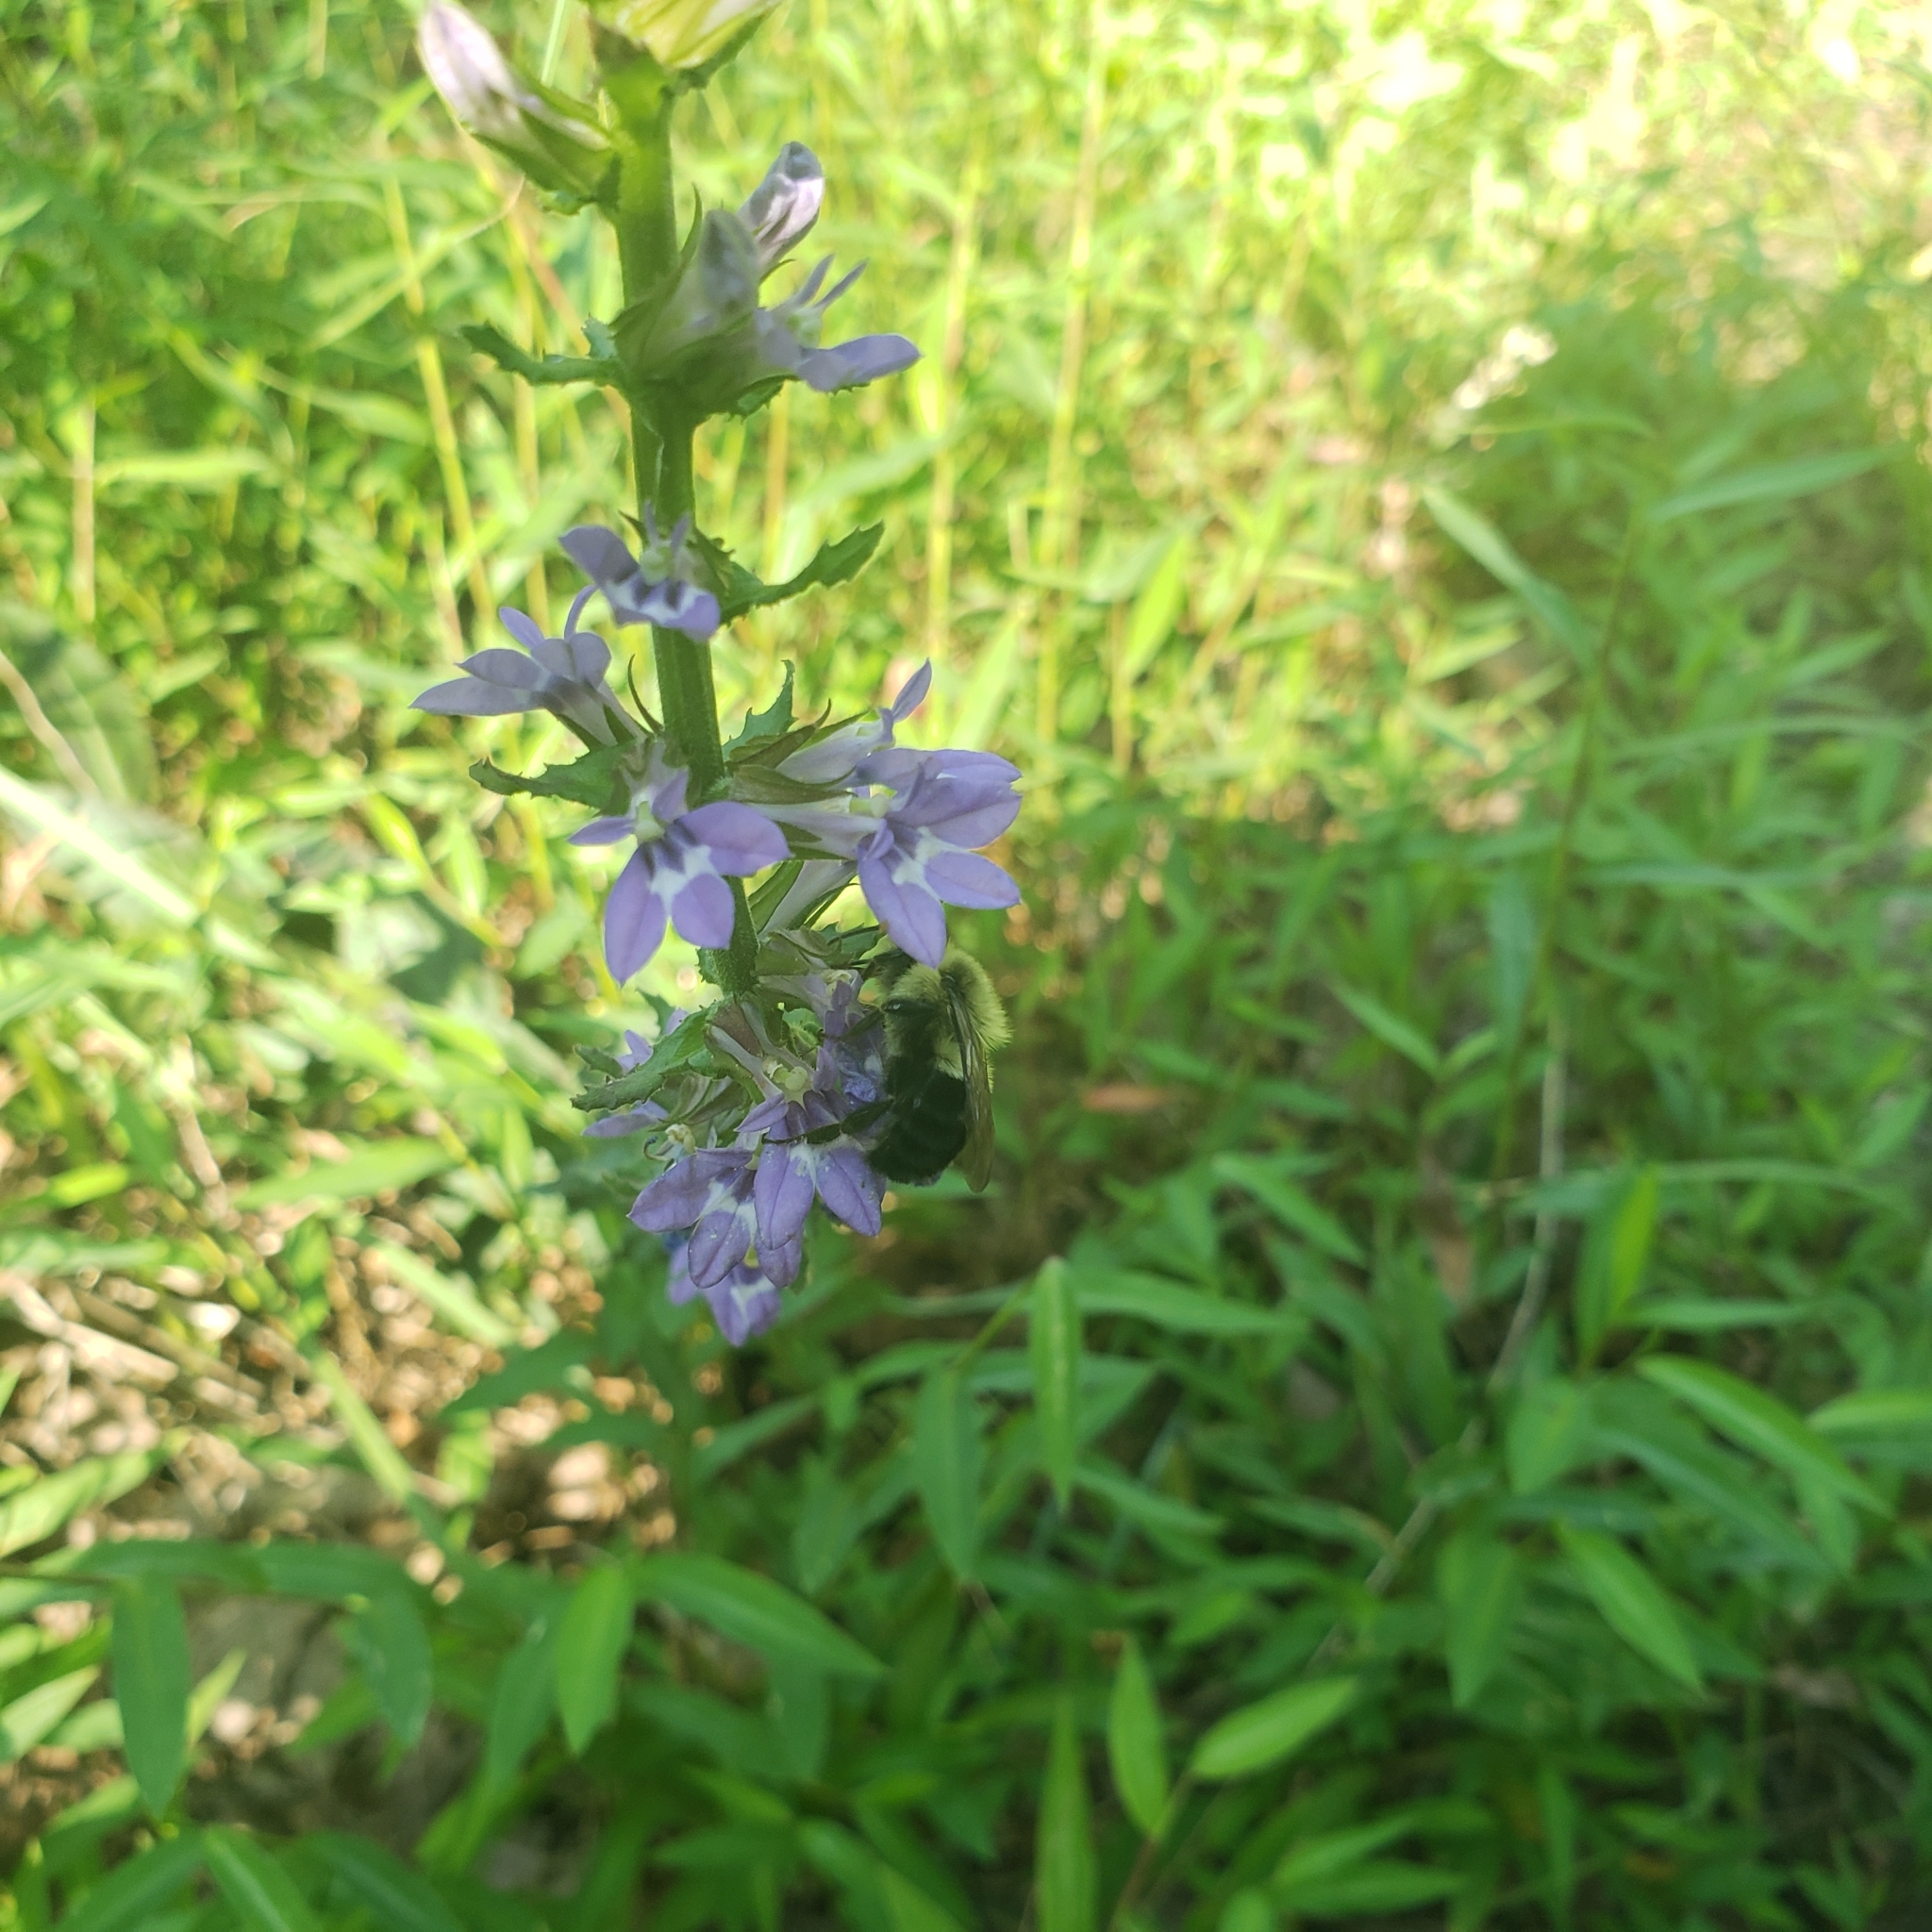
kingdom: Plantae
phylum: Tracheophyta
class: Magnoliopsida
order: Asterales
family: Campanulaceae
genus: Lobelia
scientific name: Lobelia puberula
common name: Purple dewdrop
